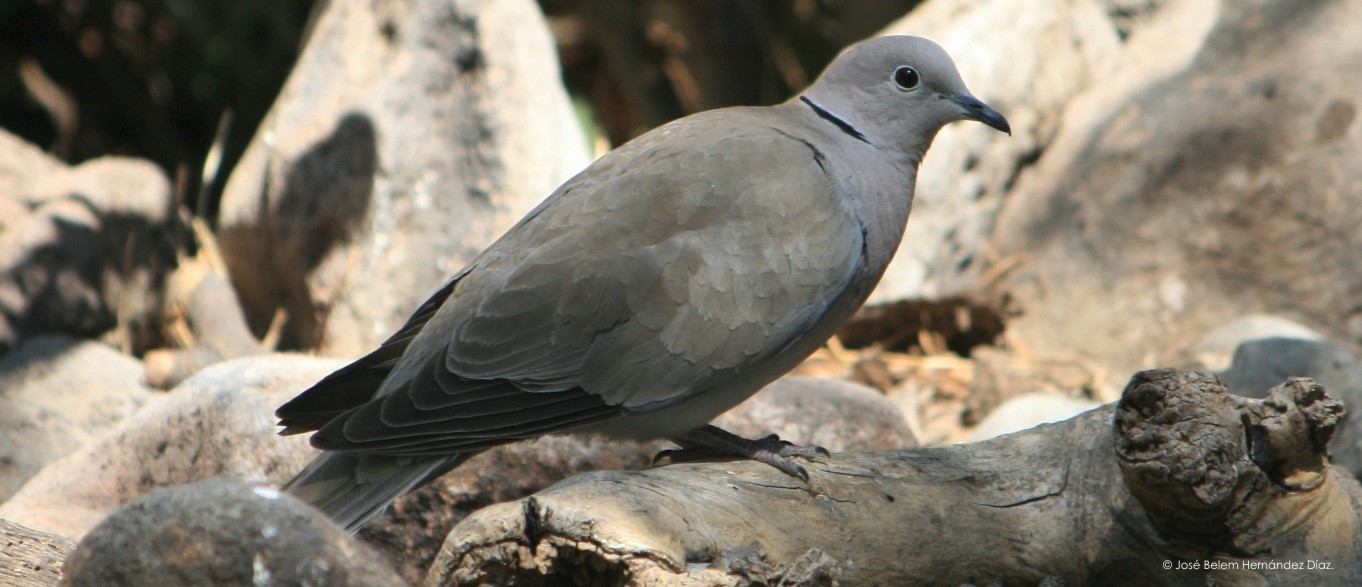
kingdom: Animalia
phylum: Chordata
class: Aves
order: Columbiformes
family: Columbidae
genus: Streptopelia
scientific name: Streptopelia decaocto
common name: Eurasian collared dove
